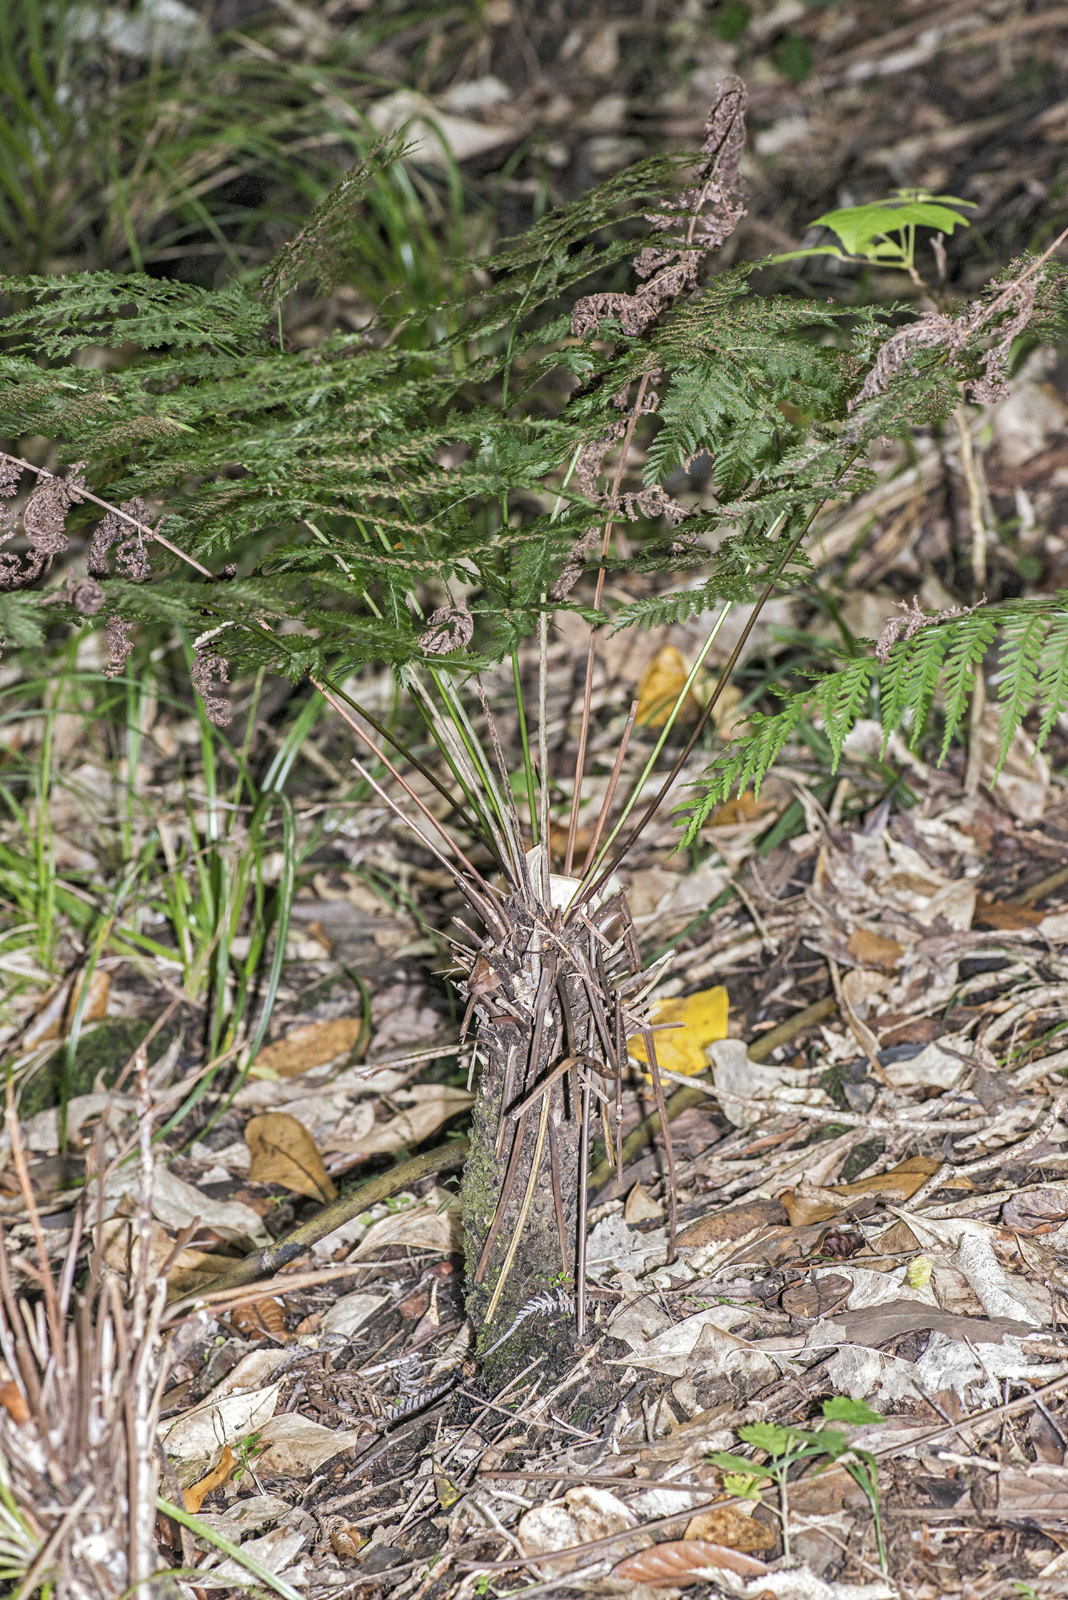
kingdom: Plantae
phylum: Tracheophyta
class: Polypodiopsida
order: Osmundales
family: Osmundaceae
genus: Leptopteris
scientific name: Leptopteris hymenophylloides
